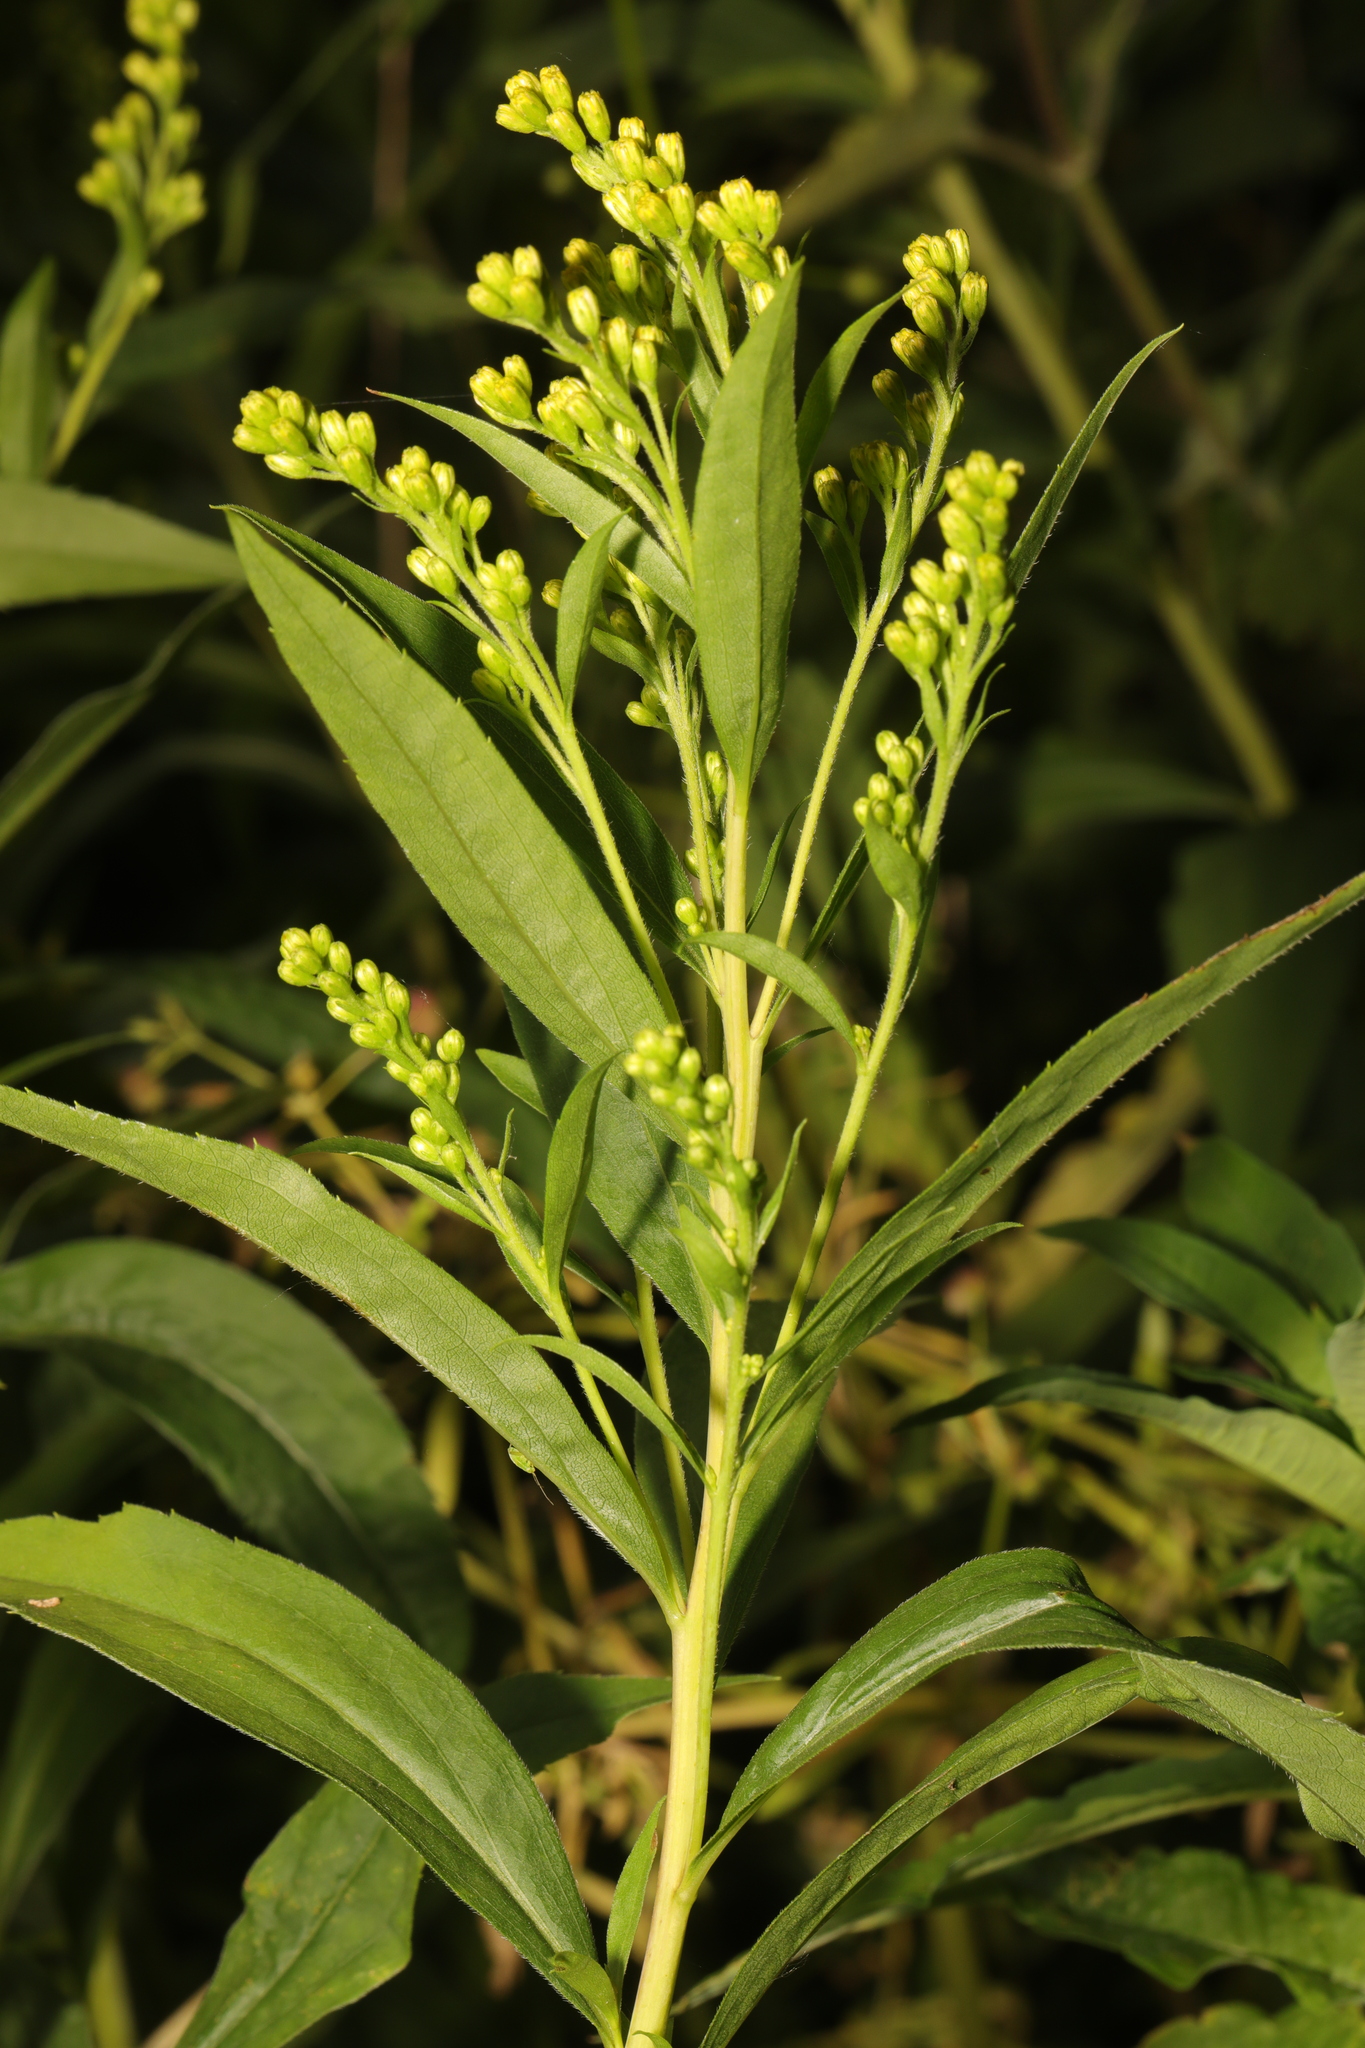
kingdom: Plantae
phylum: Tracheophyta
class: Magnoliopsida
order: Asterales
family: Asteraceae
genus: Solidago
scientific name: Solidago gigantea
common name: Giant goldenrod
